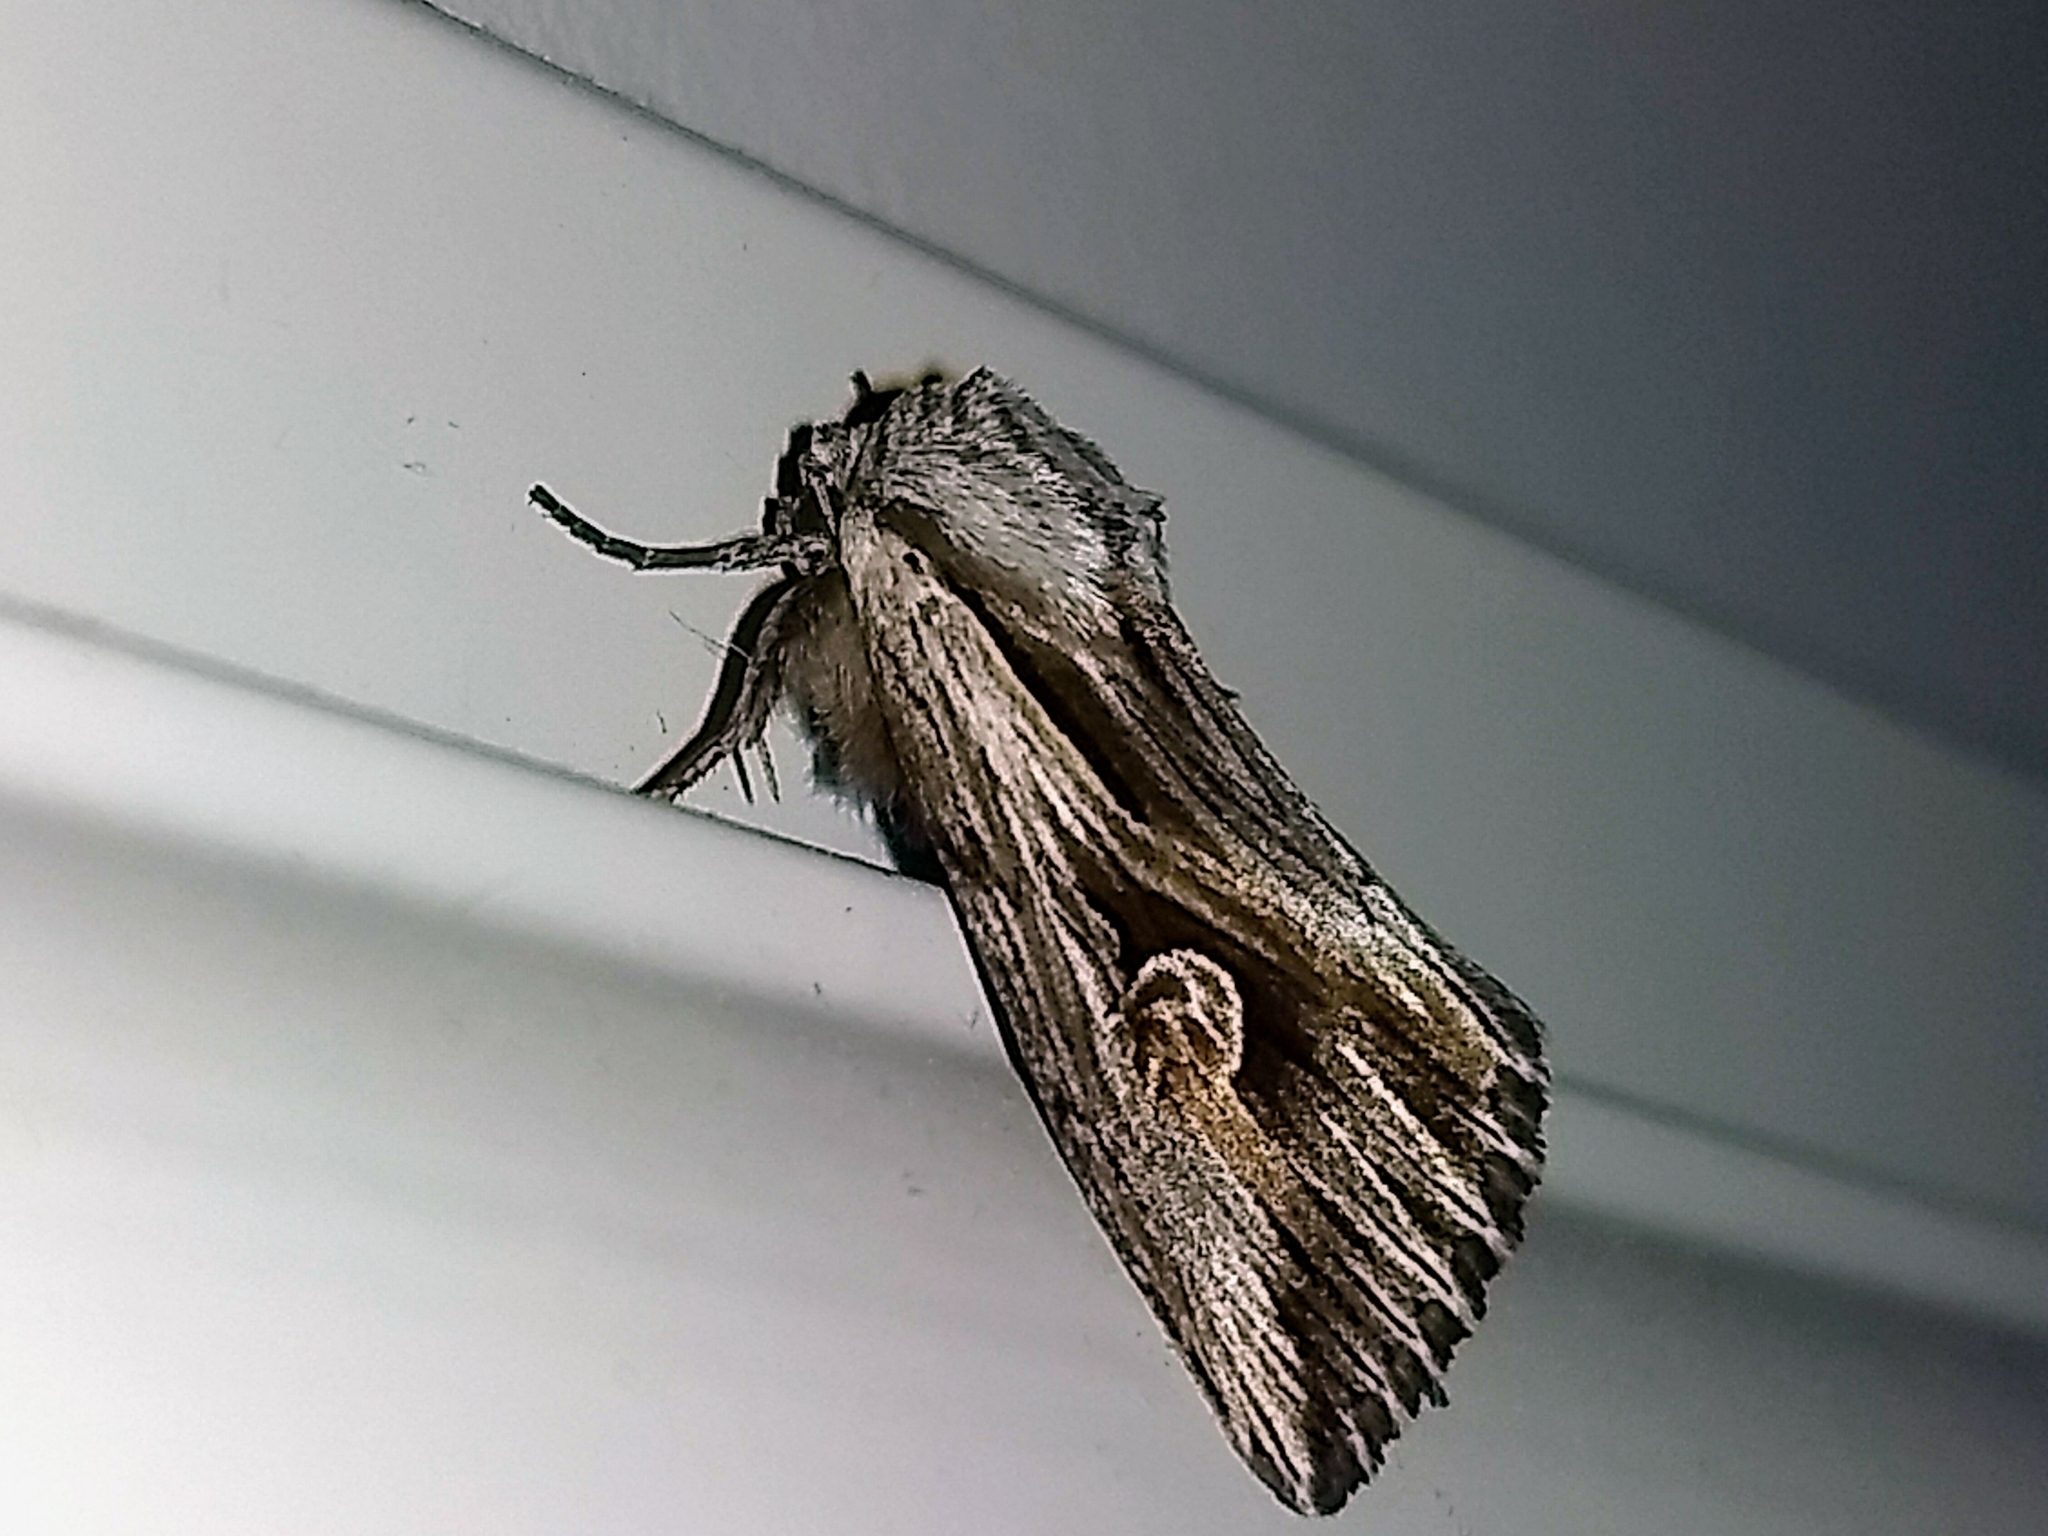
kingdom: Animalia
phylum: Arthropoda
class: Insecta
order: Lepidoptera
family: Noctuidae
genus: Nedra
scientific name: Nedra ramosula
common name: Gray half-spot
